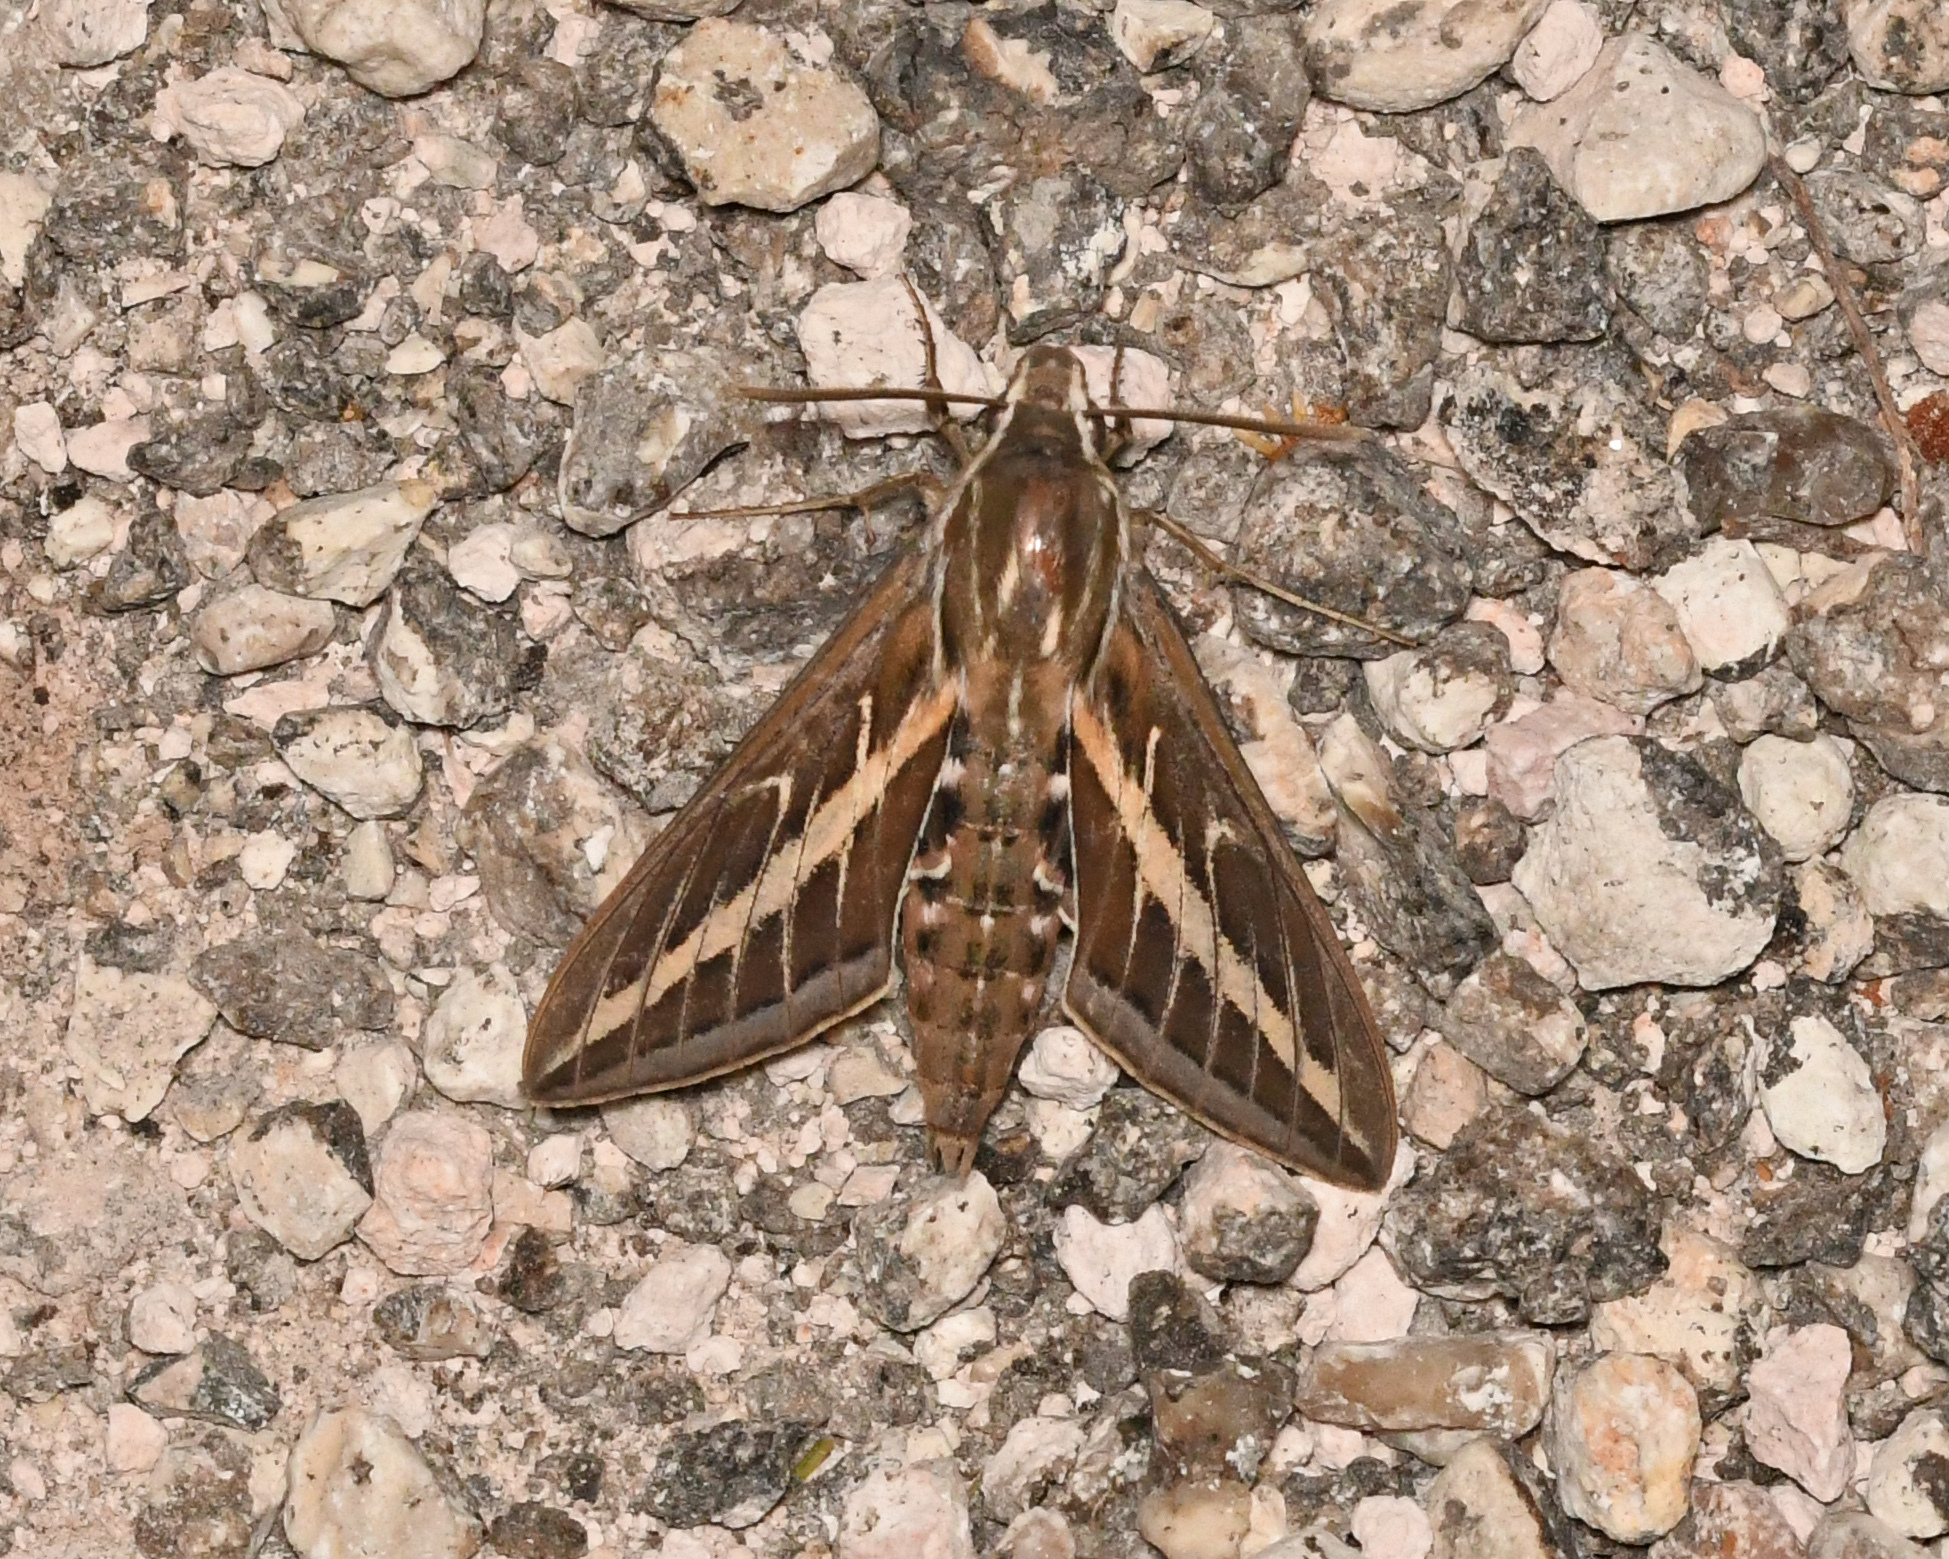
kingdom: Animalia
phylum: Arthropoda
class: Insecta
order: Lepidoptera
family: Sphingidae
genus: Hyles
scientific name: Hyles lineata
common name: White-lined sphinx
